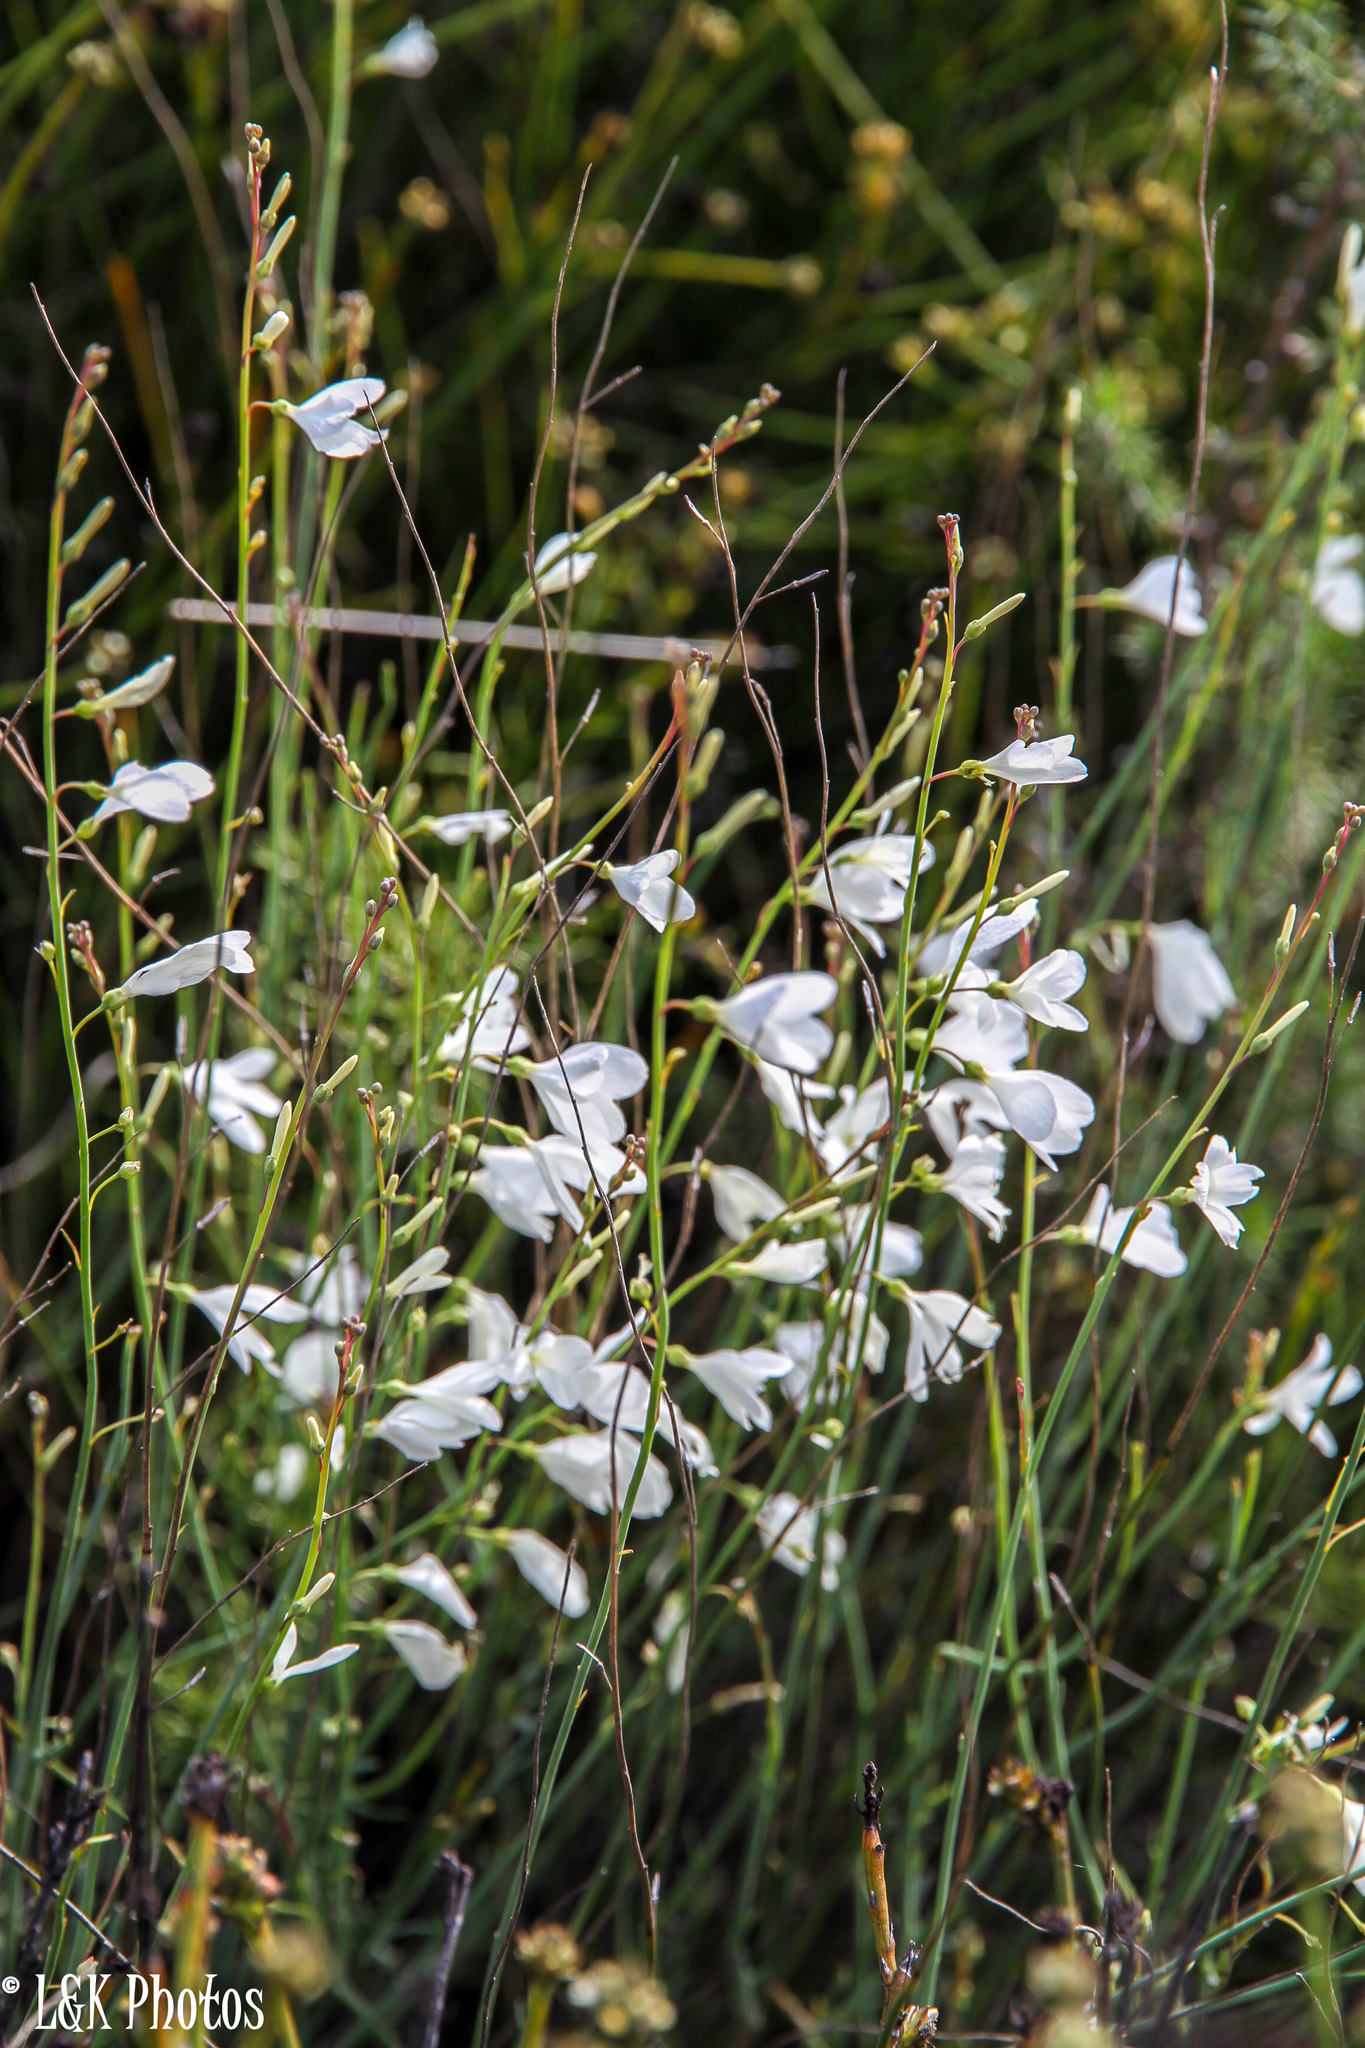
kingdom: Plantae
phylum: Tracheophyta
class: Magnoliopsida
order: Brassicales
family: Brassicaceae
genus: Heliophila
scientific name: Heliophila juncea
